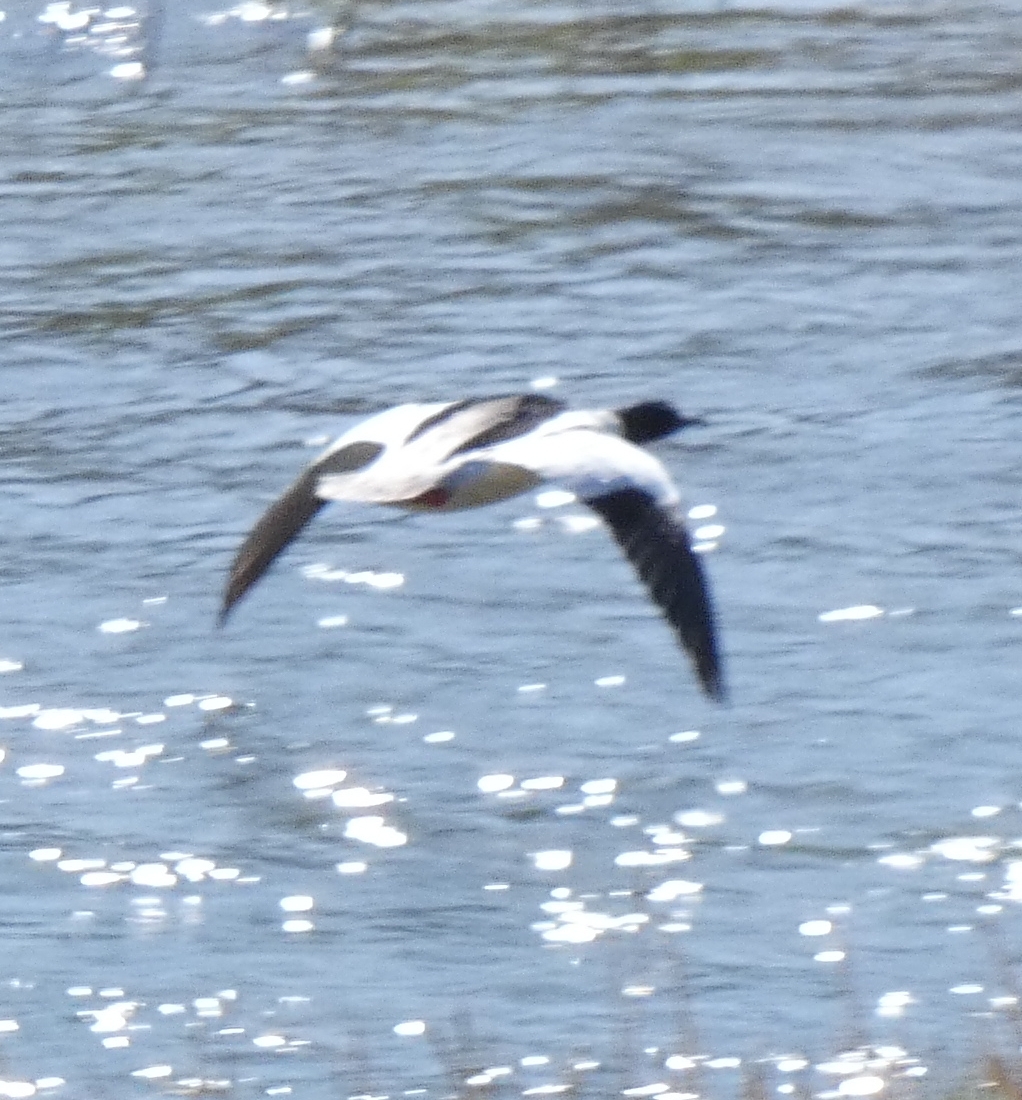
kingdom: Animalia
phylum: Chordata
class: Aves
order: Anseriformes
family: Anatidae
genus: Mergus
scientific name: Mergus merganser
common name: Common merganser
